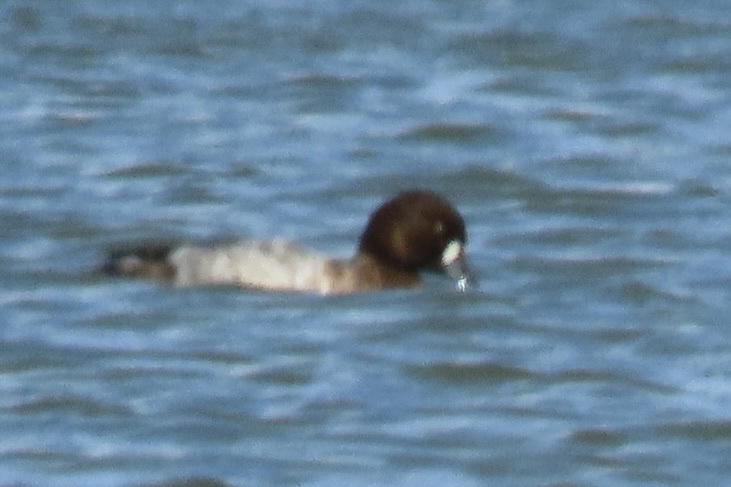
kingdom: Animalia
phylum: Chordata
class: Aves
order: Anseriformes
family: Anatidae
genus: Aythya
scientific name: Aythya marila
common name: Greater scaup
